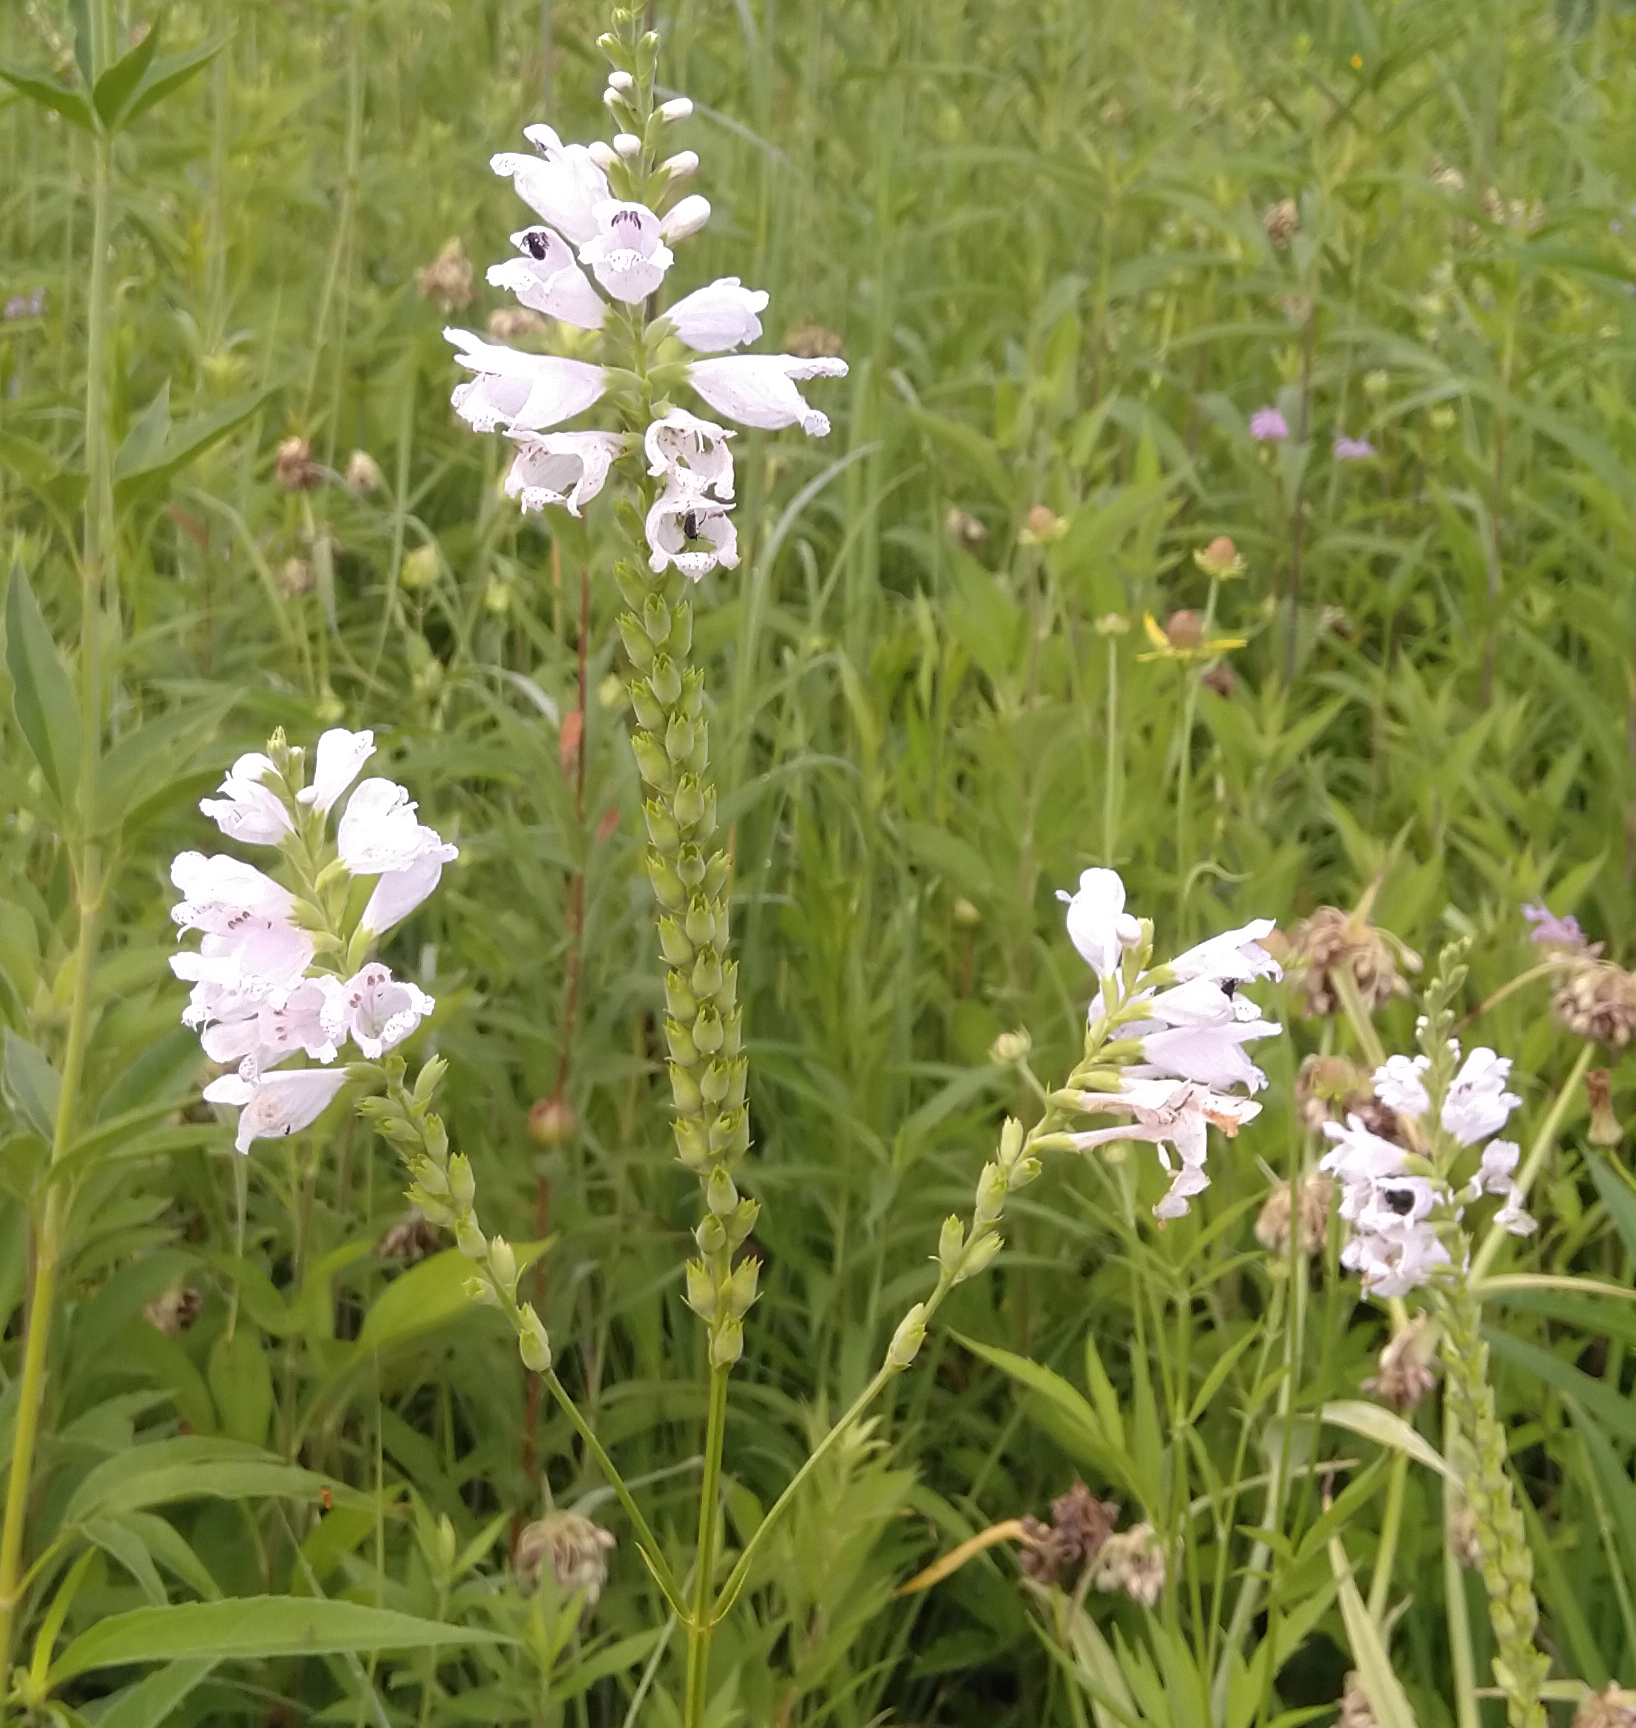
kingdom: Plantae
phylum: Tracheophyta
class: Magnoliopsida
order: Lamiales
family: Lamiaceae
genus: Physostegia
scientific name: Physostegia virginiana
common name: Obedient-plant
